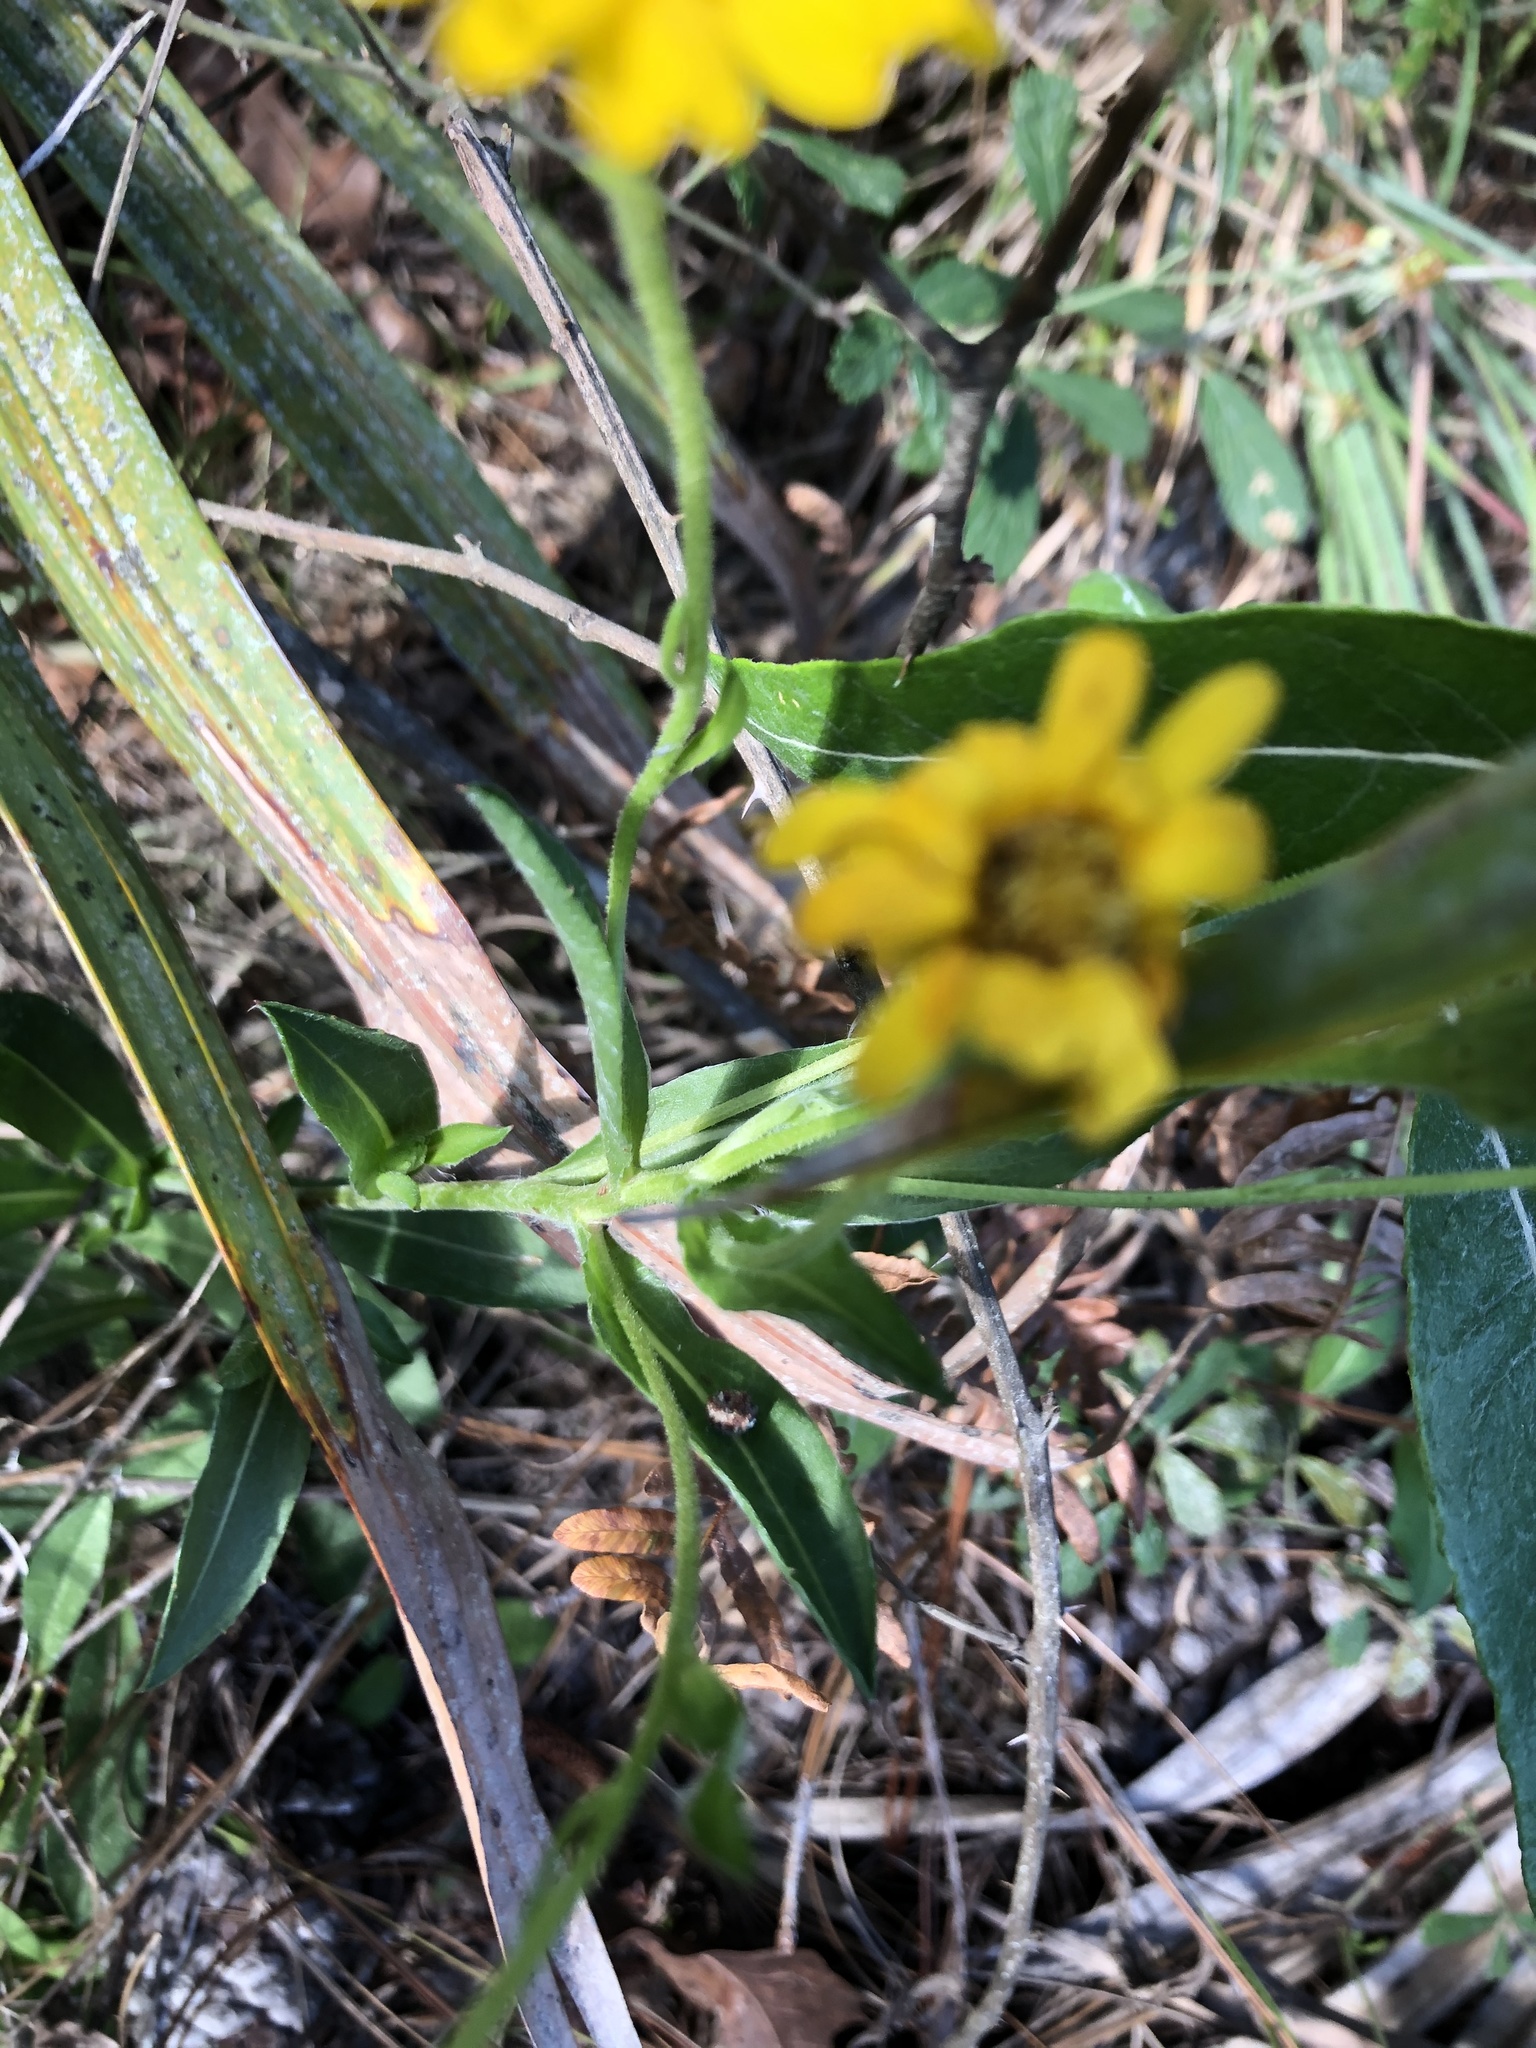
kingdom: Plantae
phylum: Tracheophyta
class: Magnoliopsida
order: Asterales
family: Asteraceae
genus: Chrysopsis
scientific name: Chrysopsis mariana
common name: Maryland golden-aster
